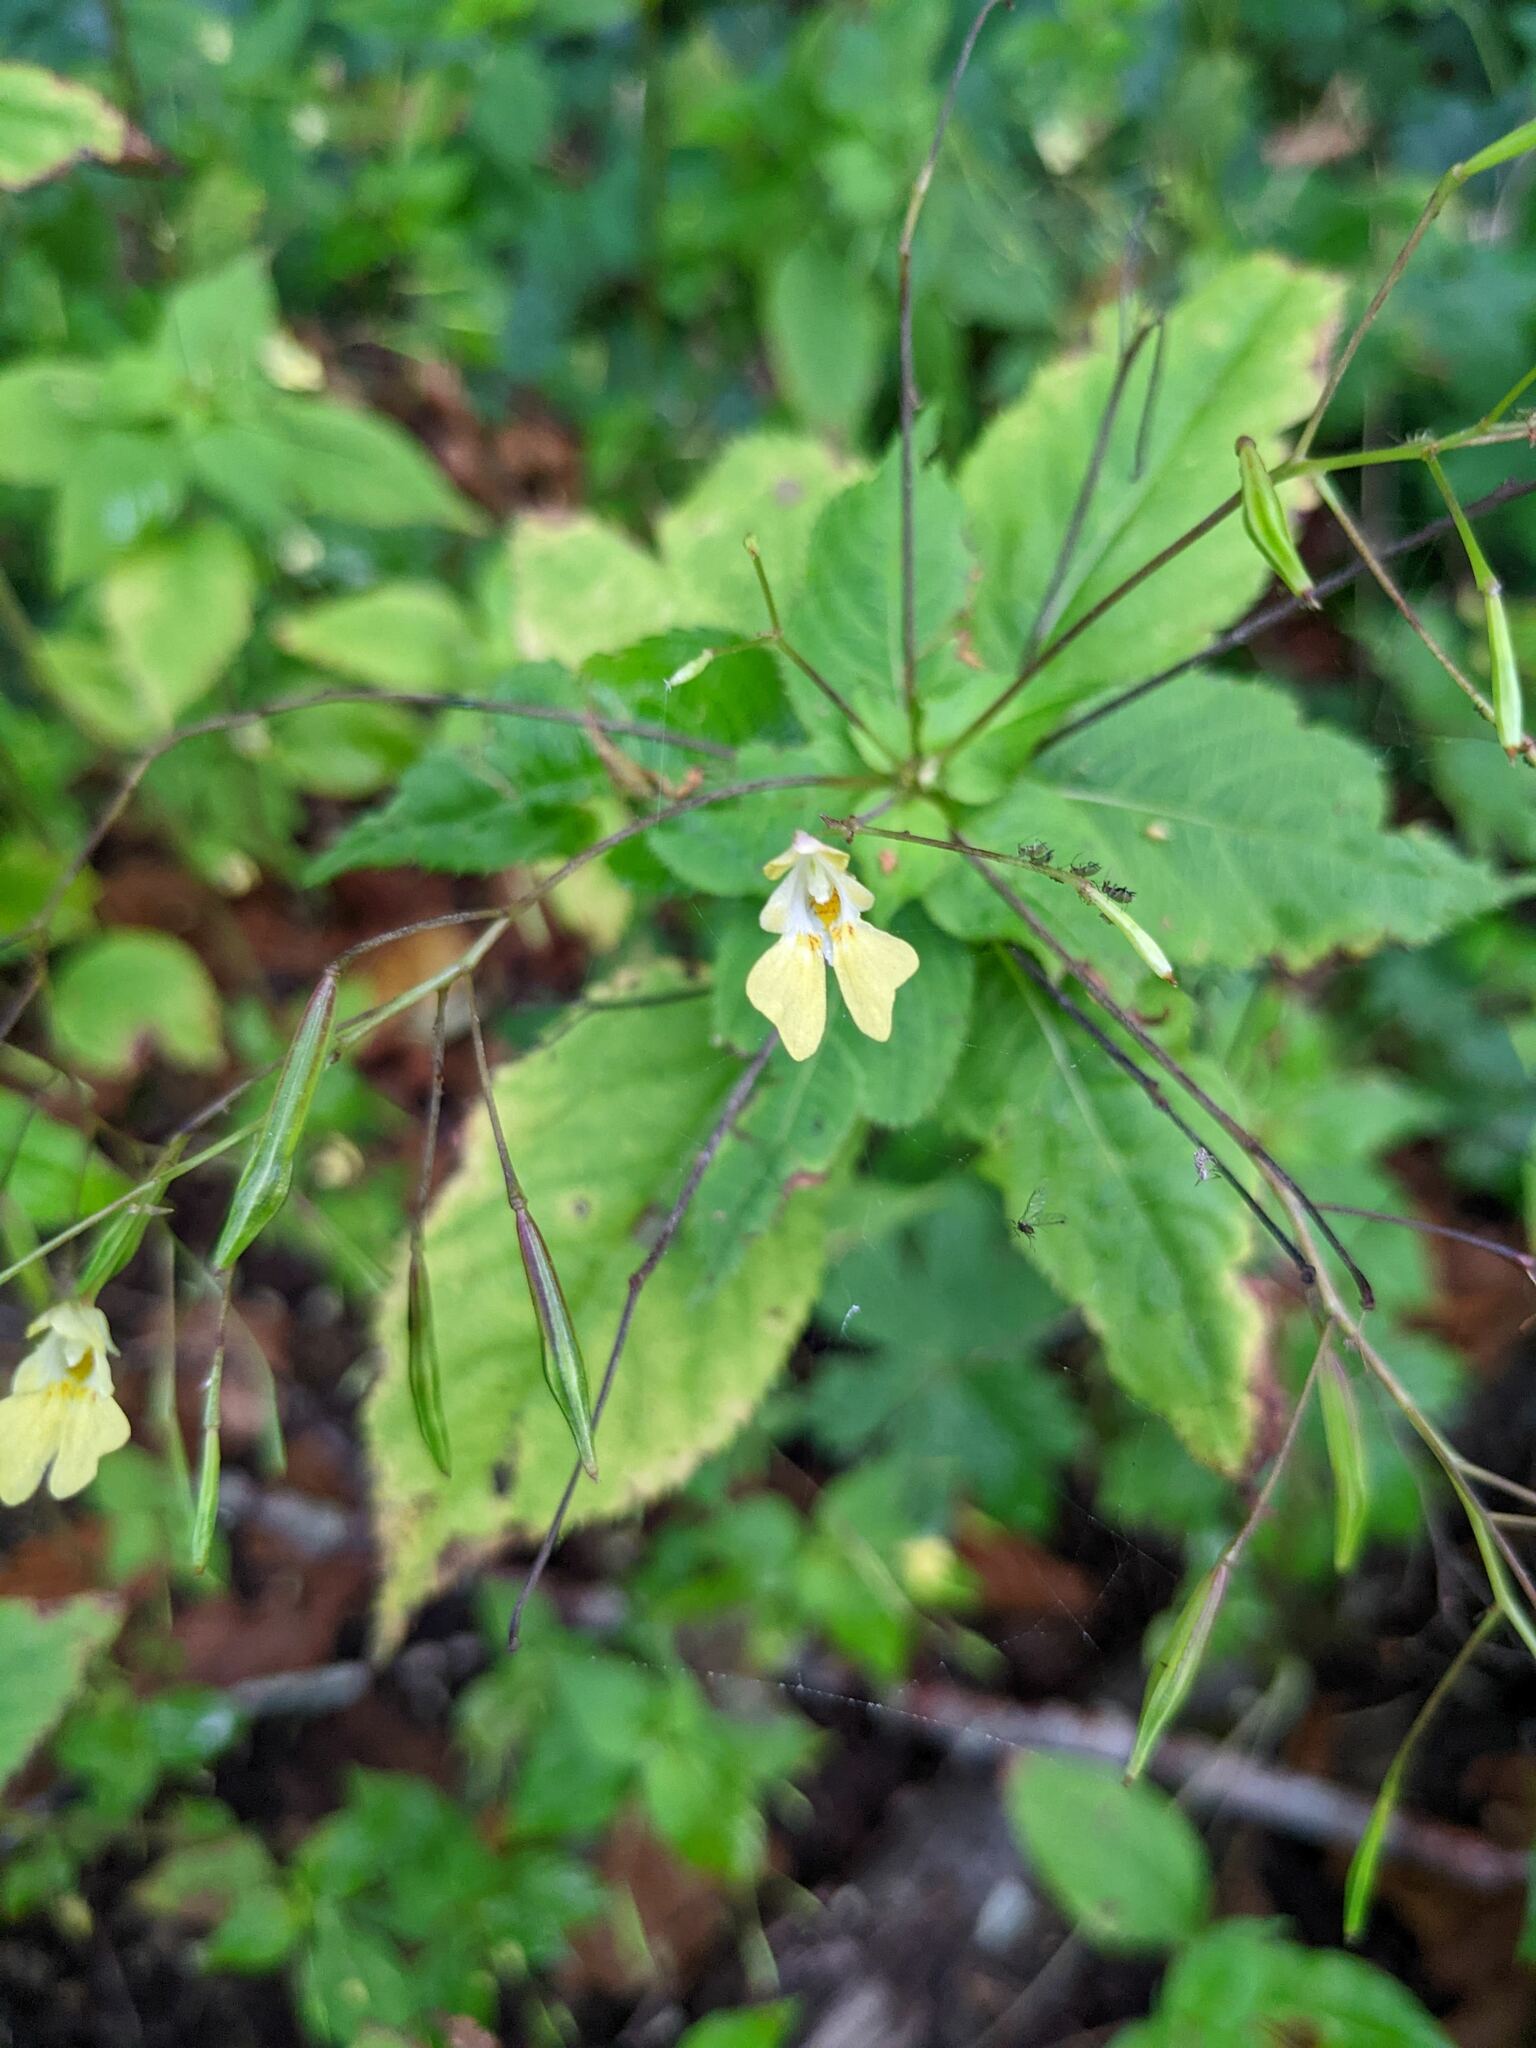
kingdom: Plantae
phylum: Tracheophyta
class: Magnoliopsida
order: Ericales
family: Balsaminaceae
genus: Impatiens
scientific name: Impatiens parviflora
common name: Small balsam
